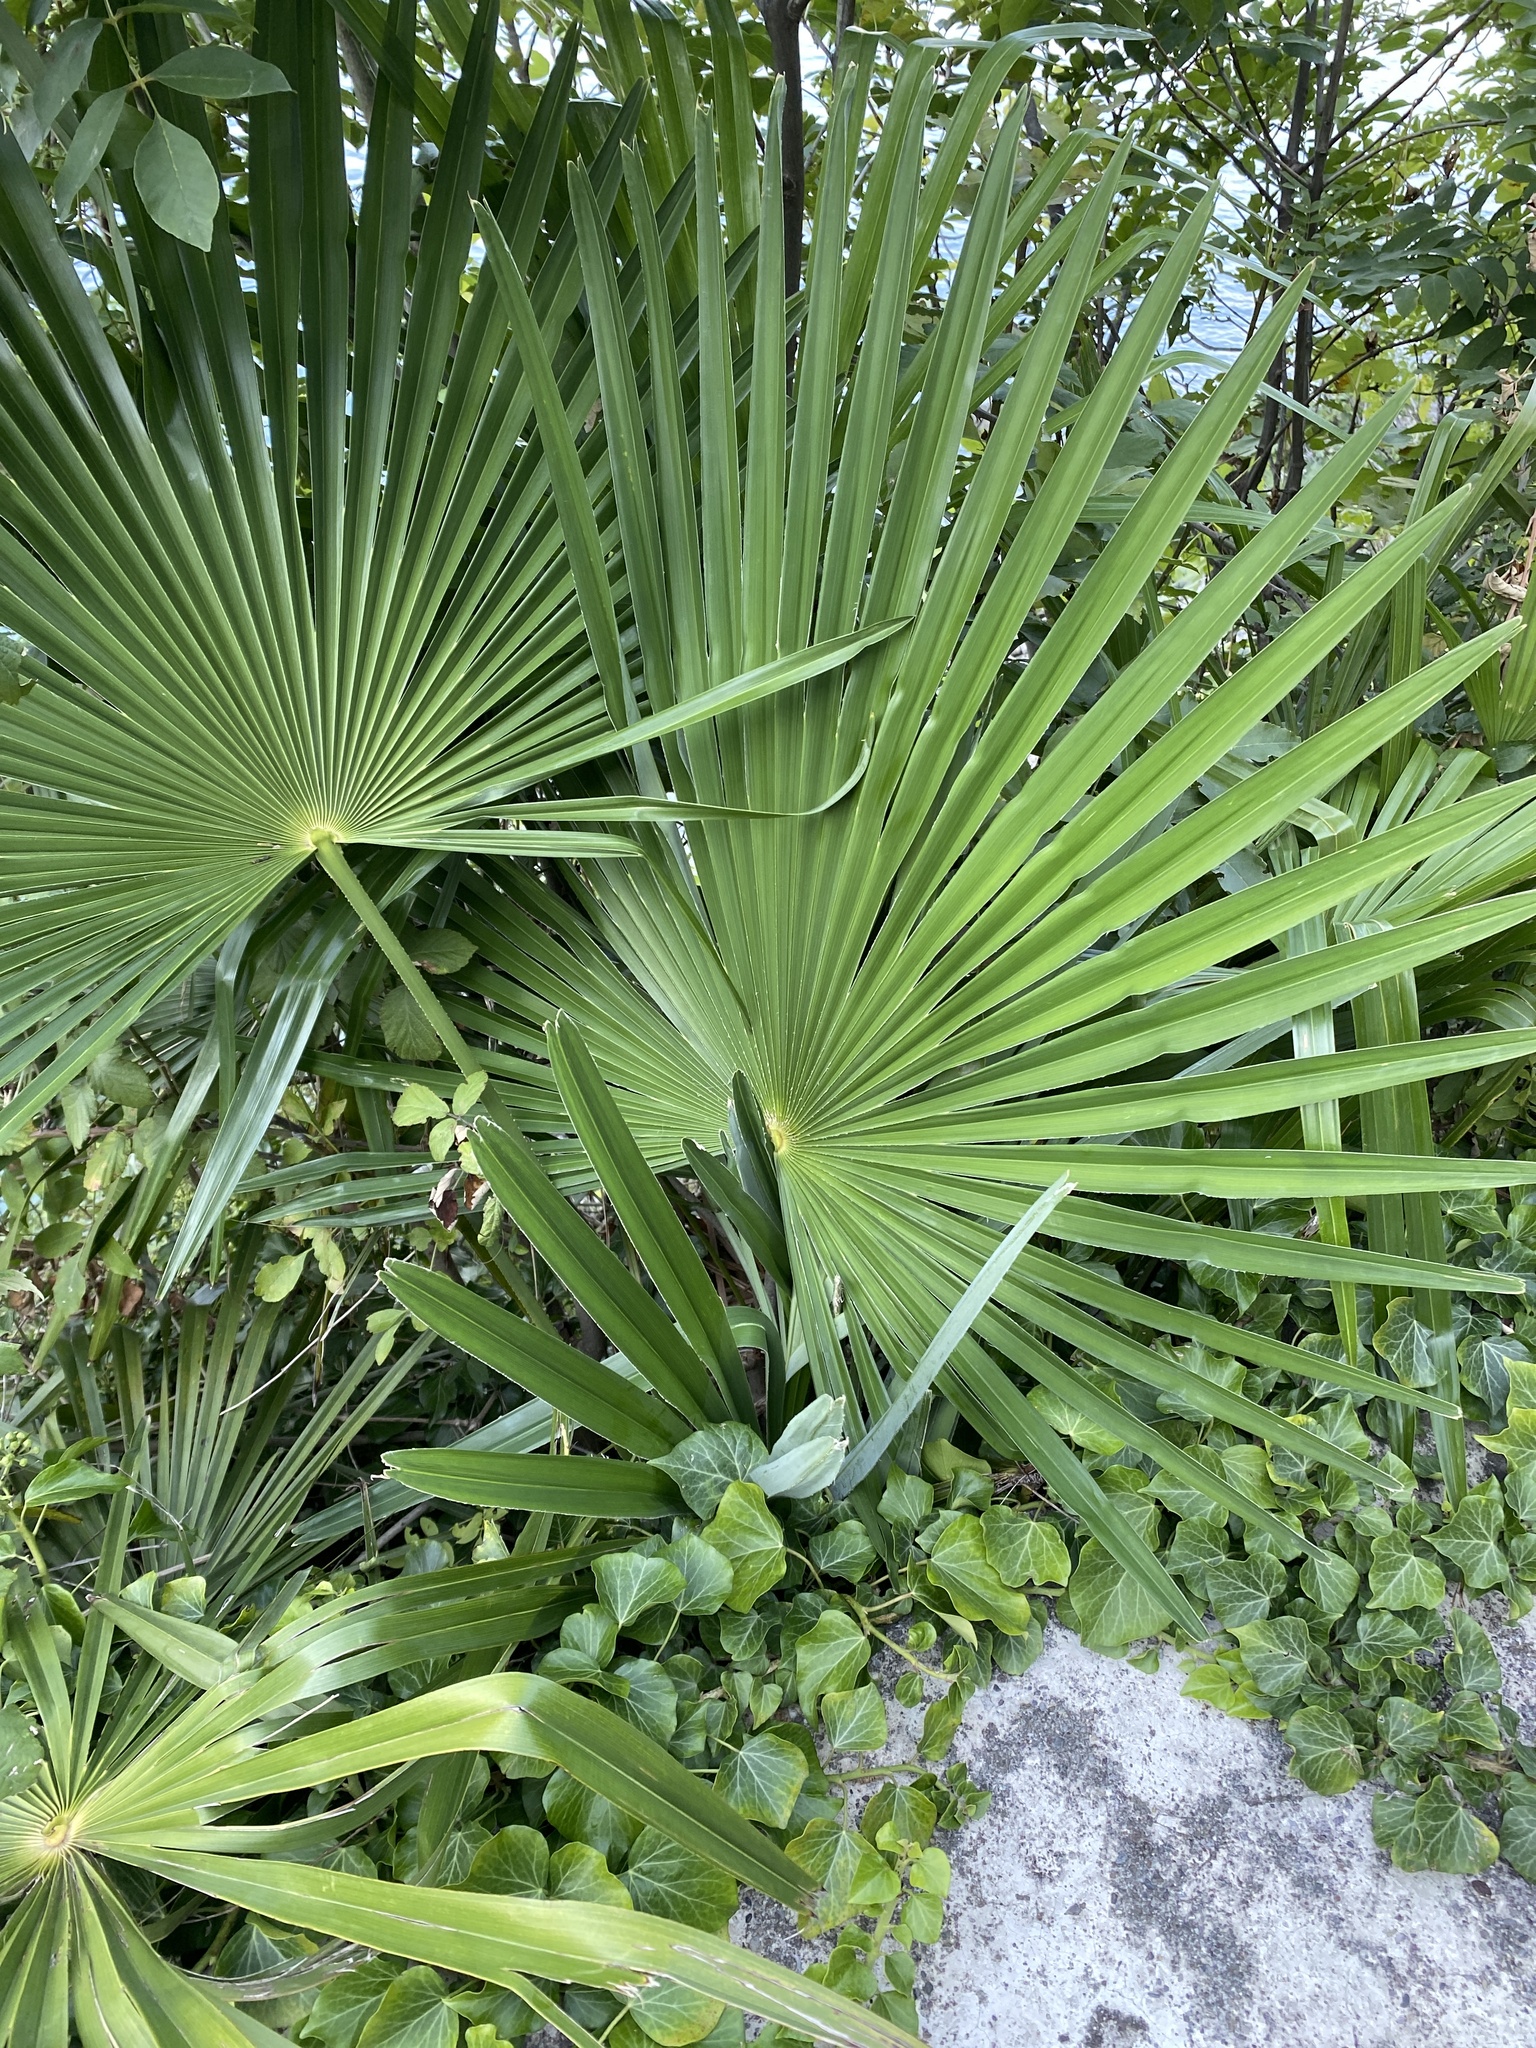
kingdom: Plantae
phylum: Tracheophyta
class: Liliopsida
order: Arecales
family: Arecaceae
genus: Trachycarpus
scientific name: Trachycarpus fortunei
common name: Chusan palm
